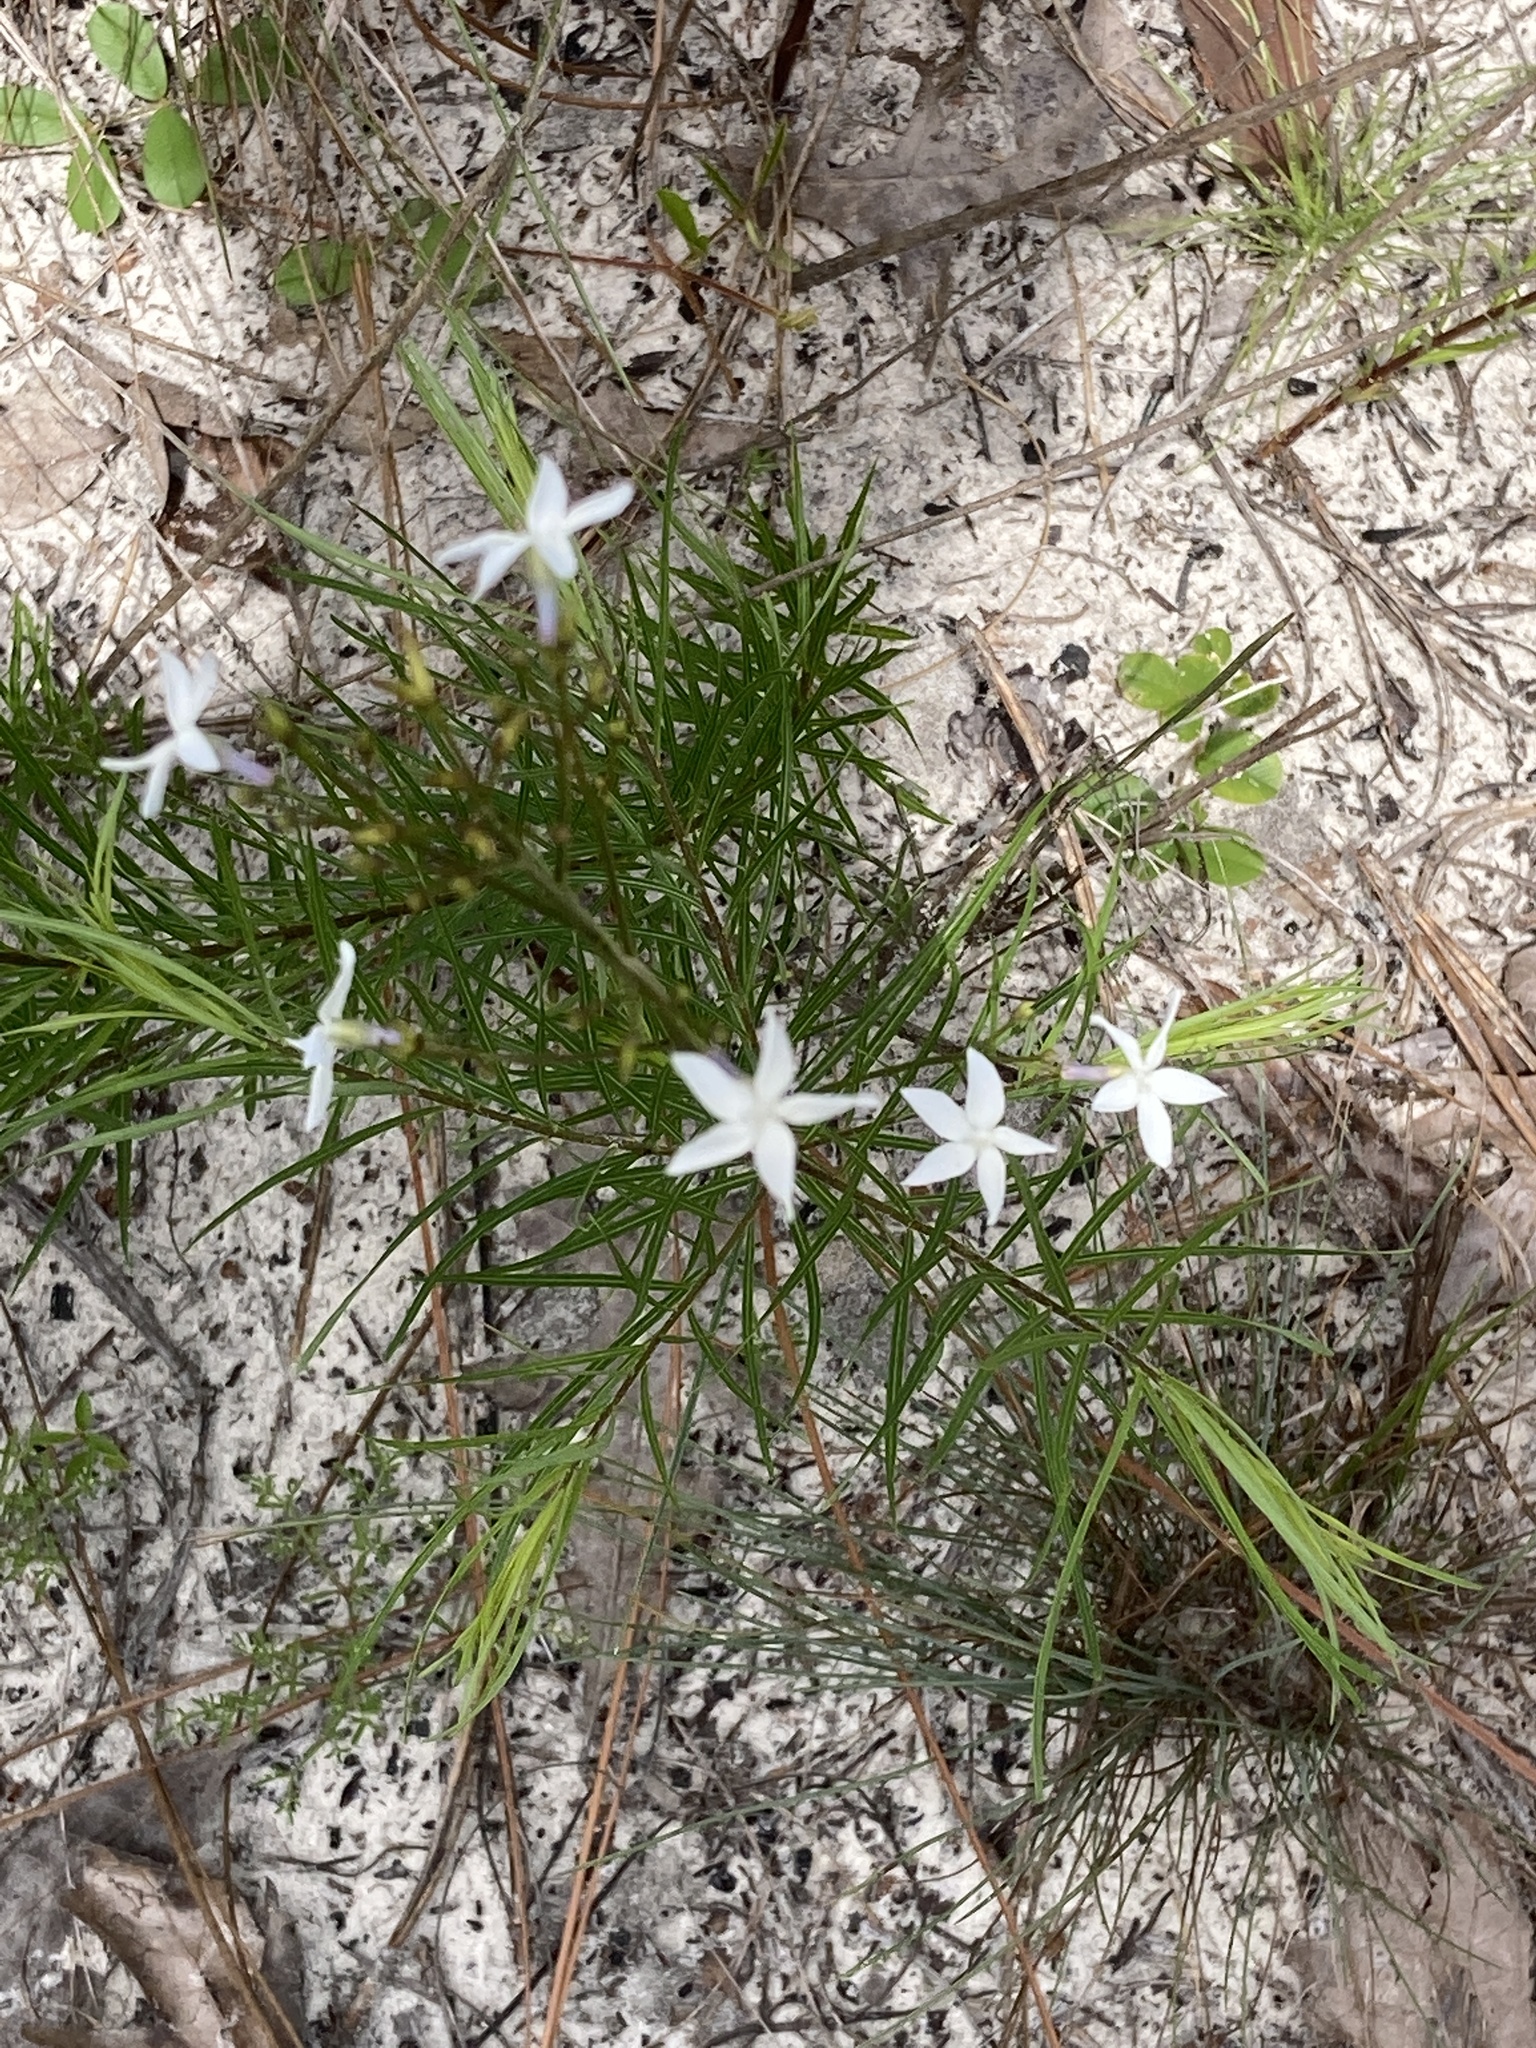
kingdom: Plantae
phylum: Tracheophyta
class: Magnoliopsida
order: Gentianales
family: Apocynaceae
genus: Amsonia
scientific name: Amsonia ciliata
